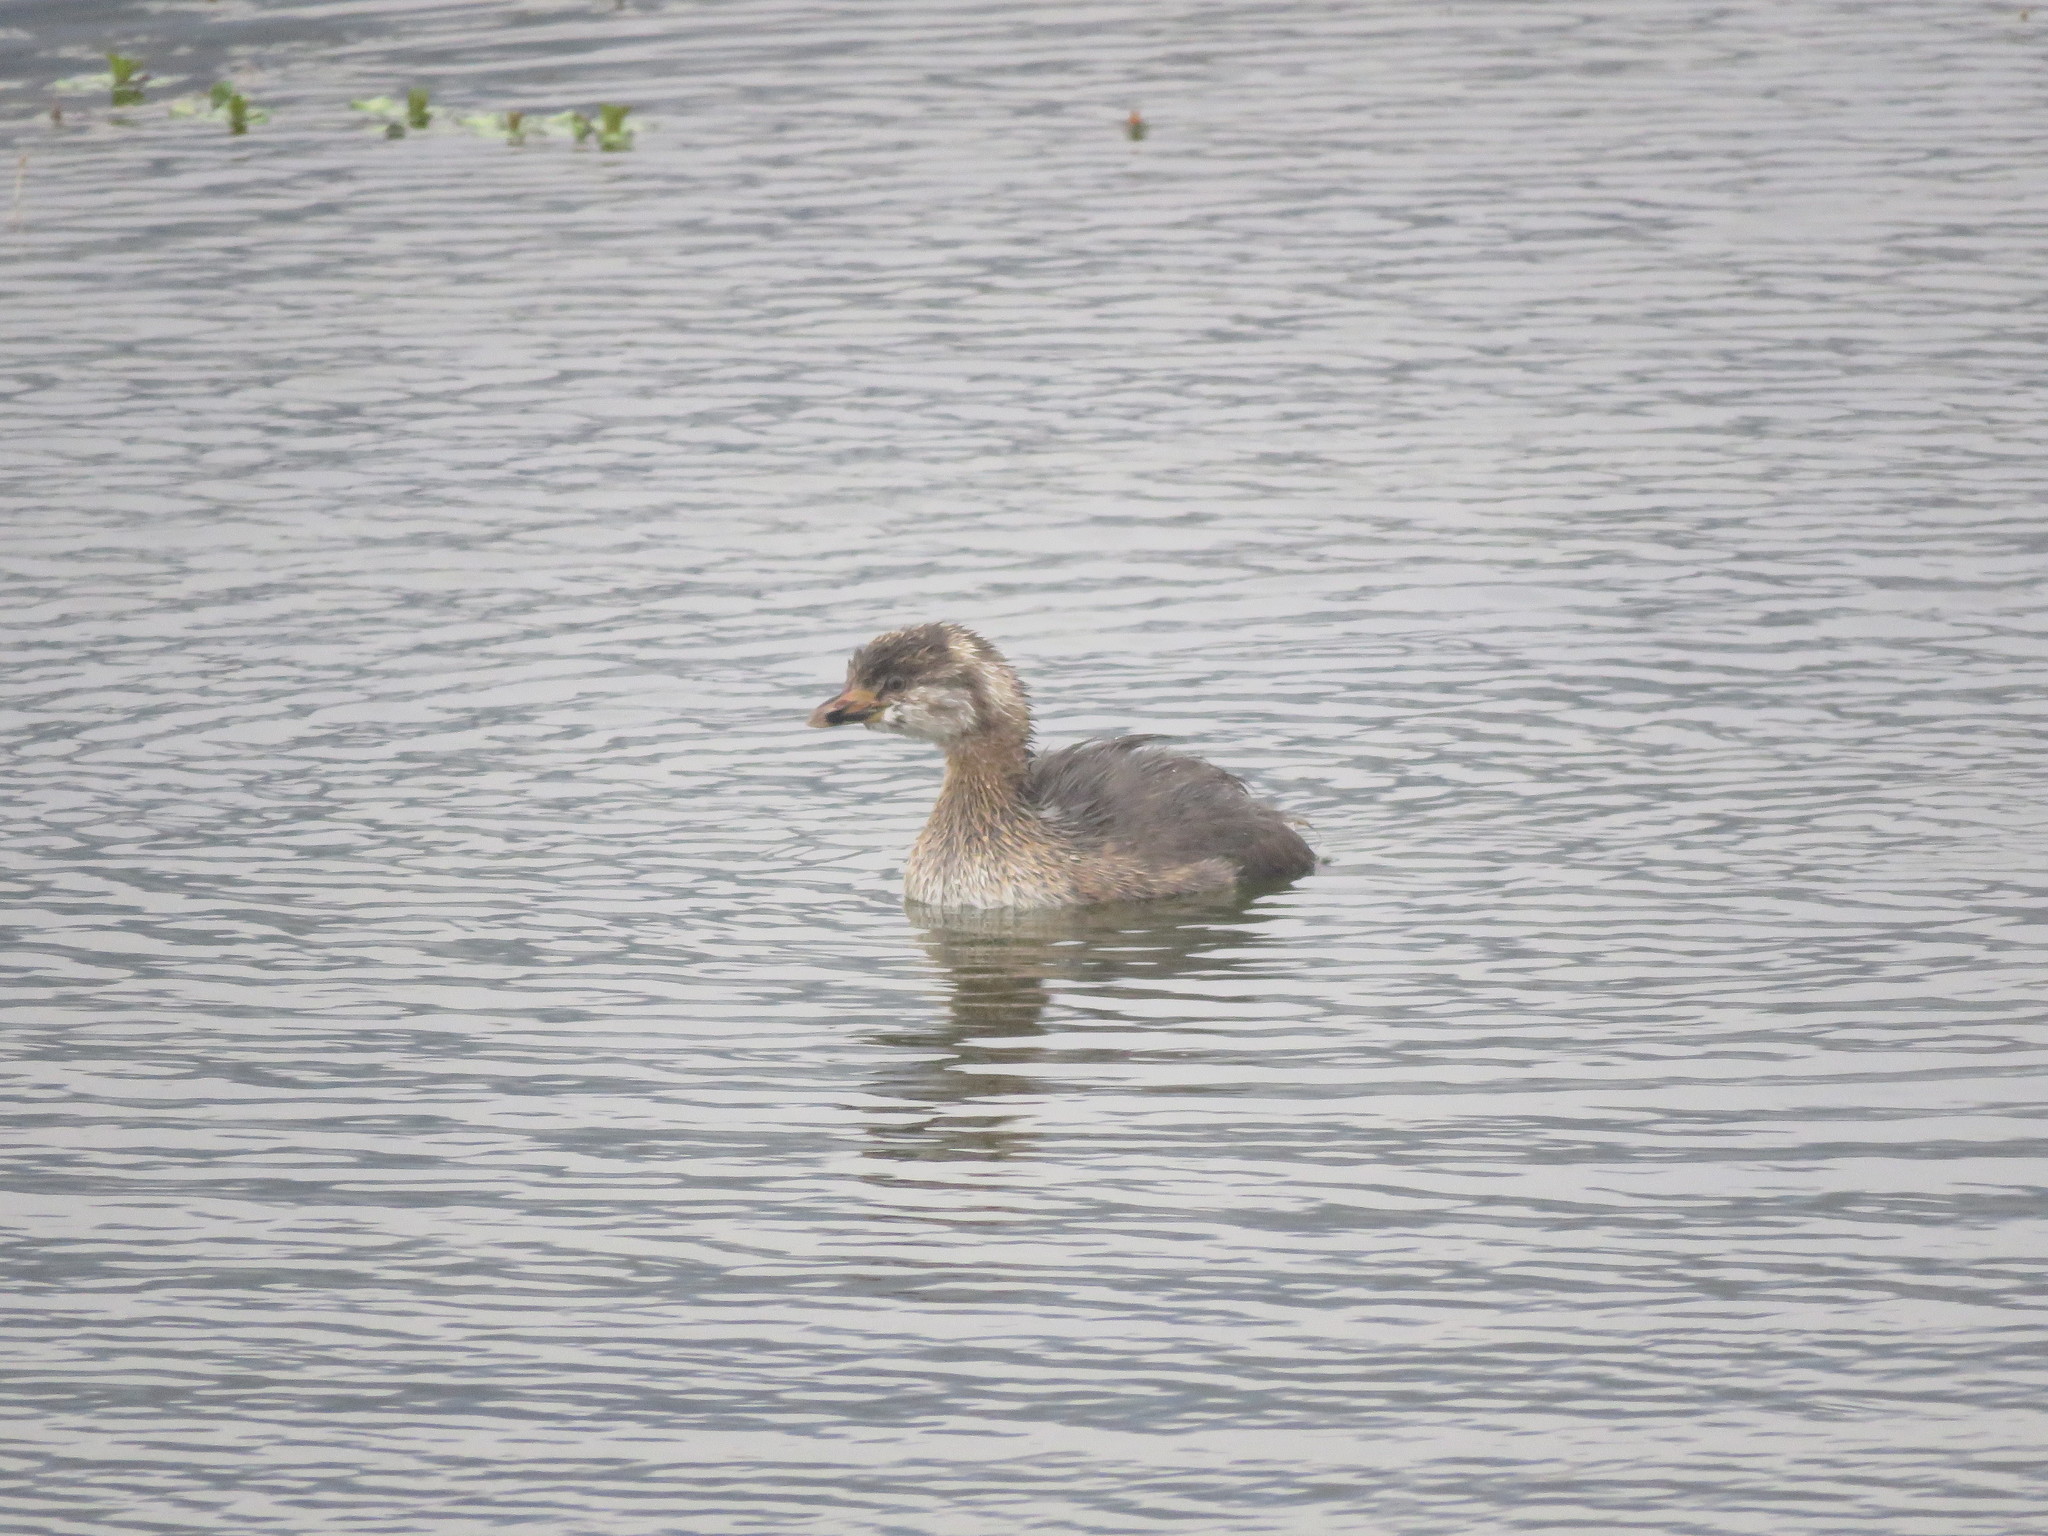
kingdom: Animalia
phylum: Chordata
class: Aves
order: Podicipediformes
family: Podicipedidae
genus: Podilymbus
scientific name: Podilymbus podiceps
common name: Pied-billed grebe
